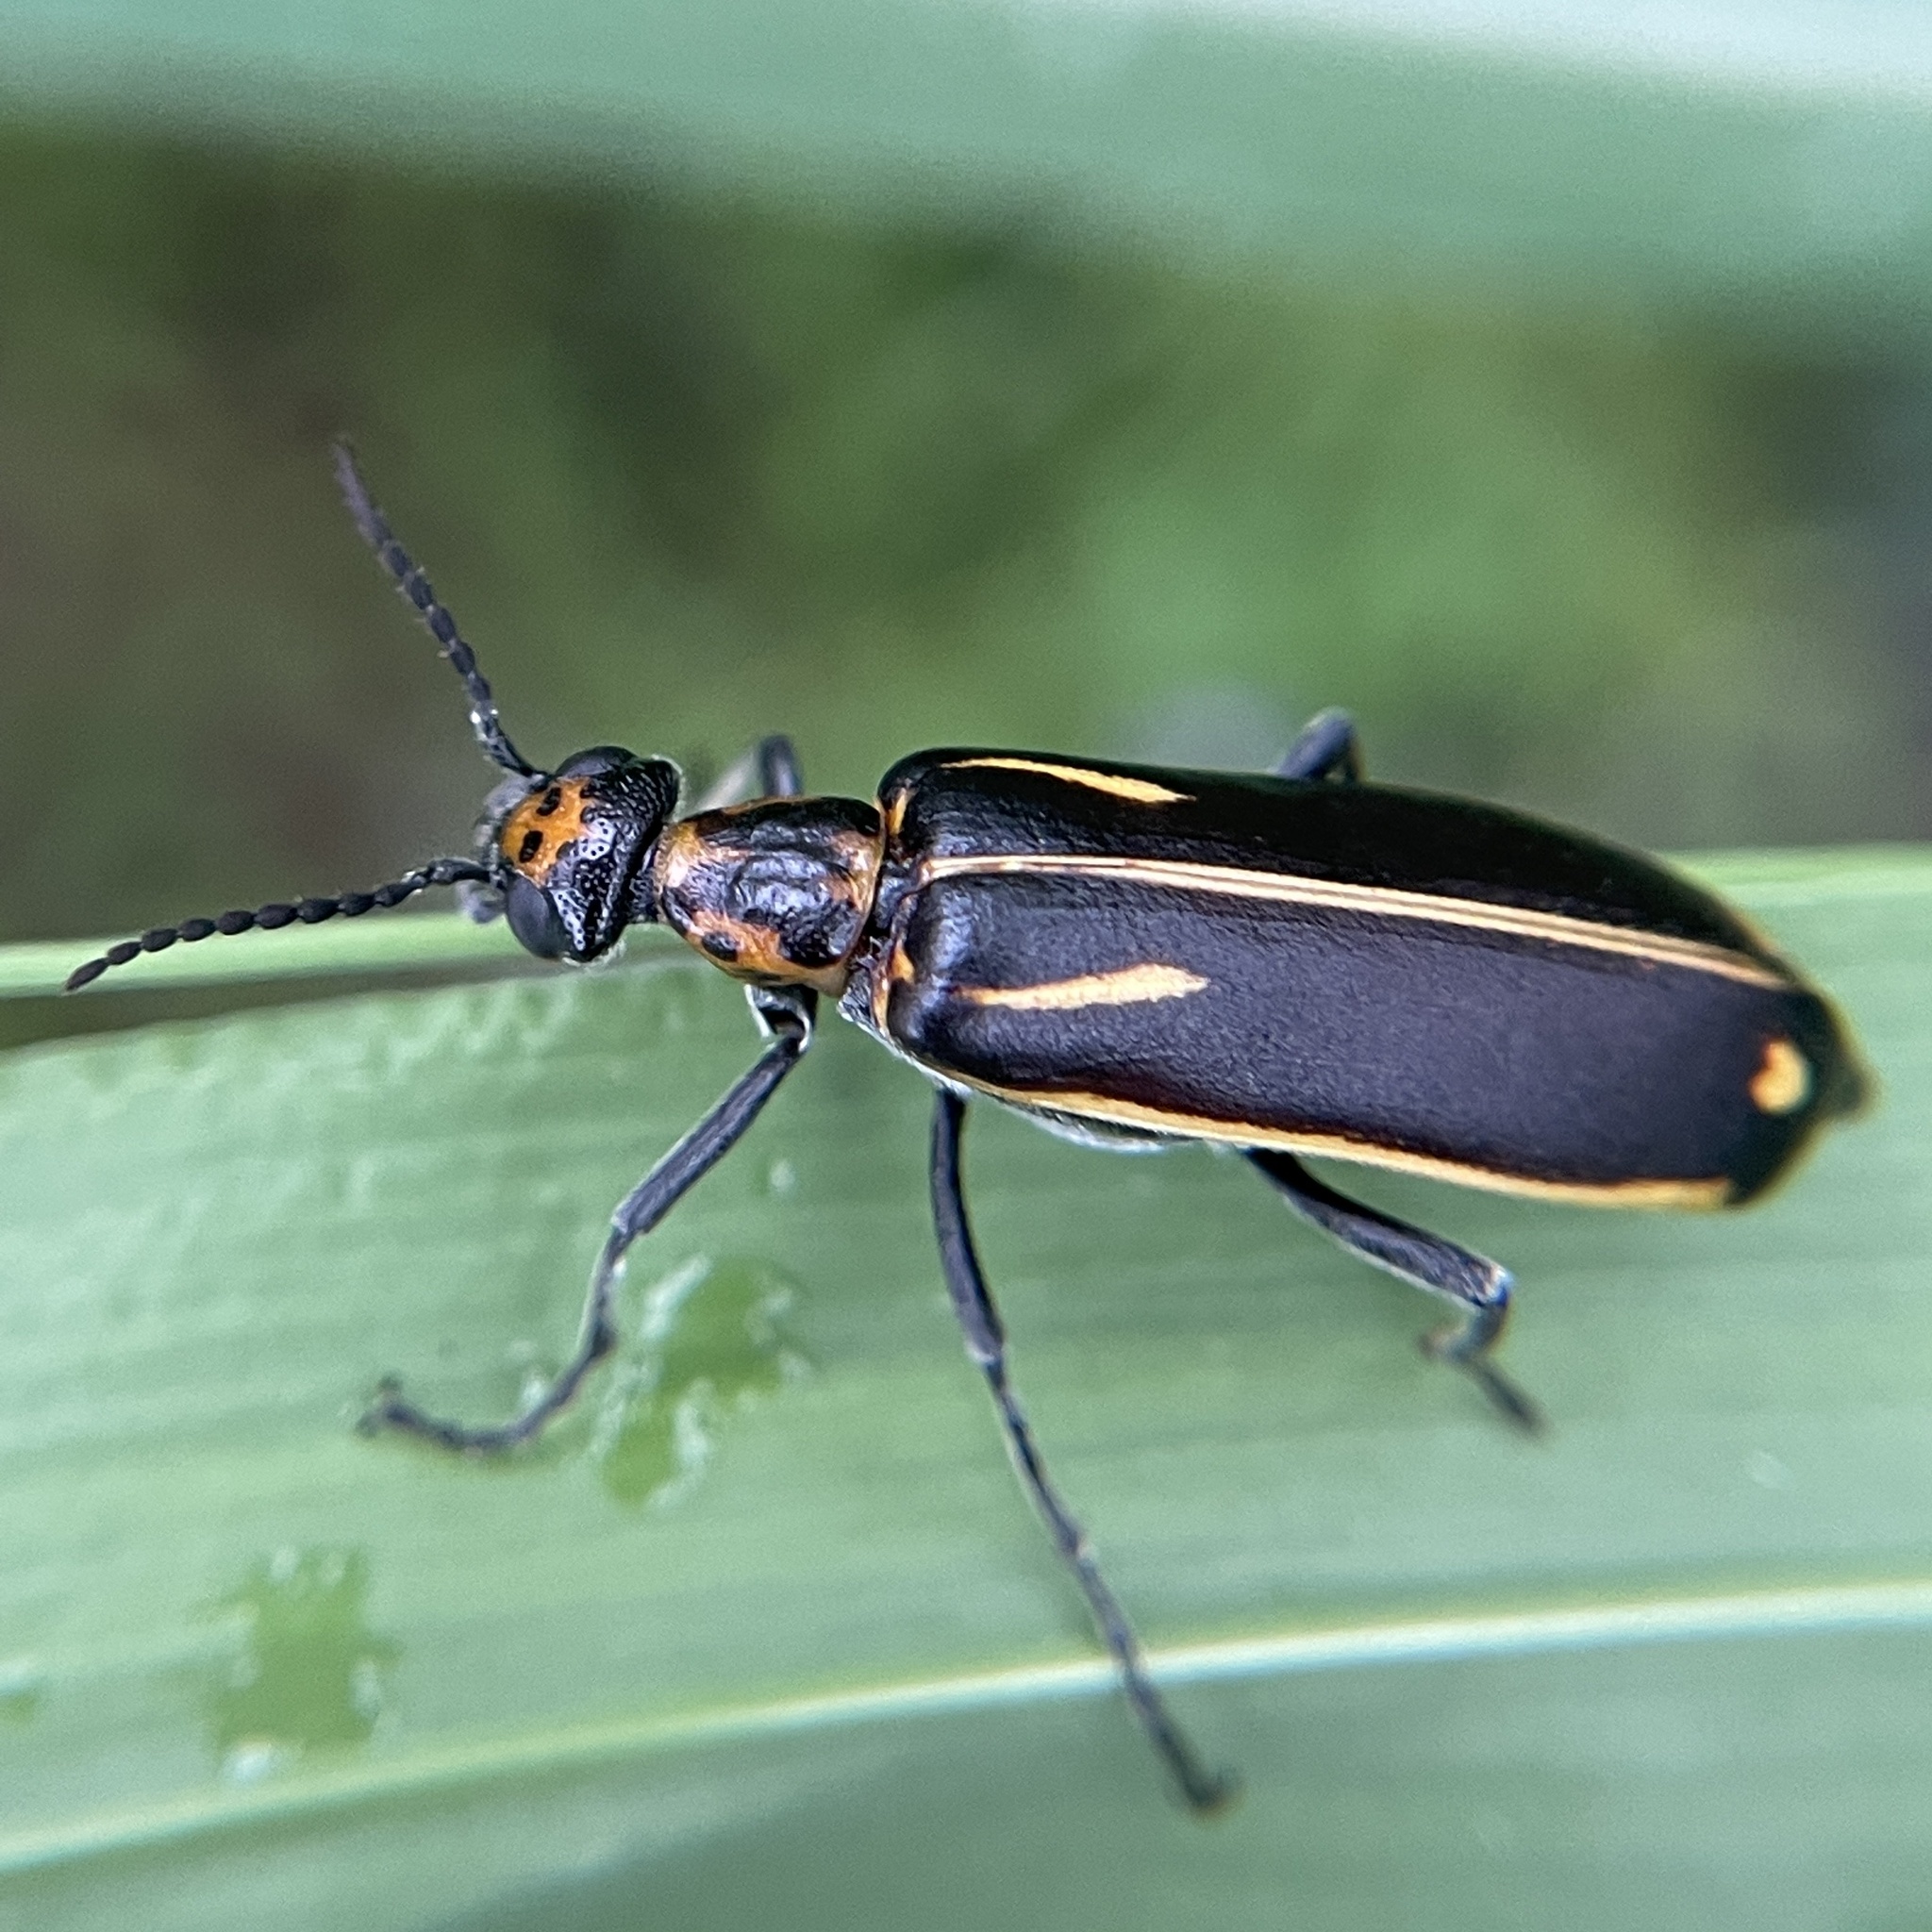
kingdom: Animalia
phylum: Arthropoda
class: Insecta
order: Coleoptera
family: Meloidae
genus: Pyrota
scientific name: Pyrota insulata
